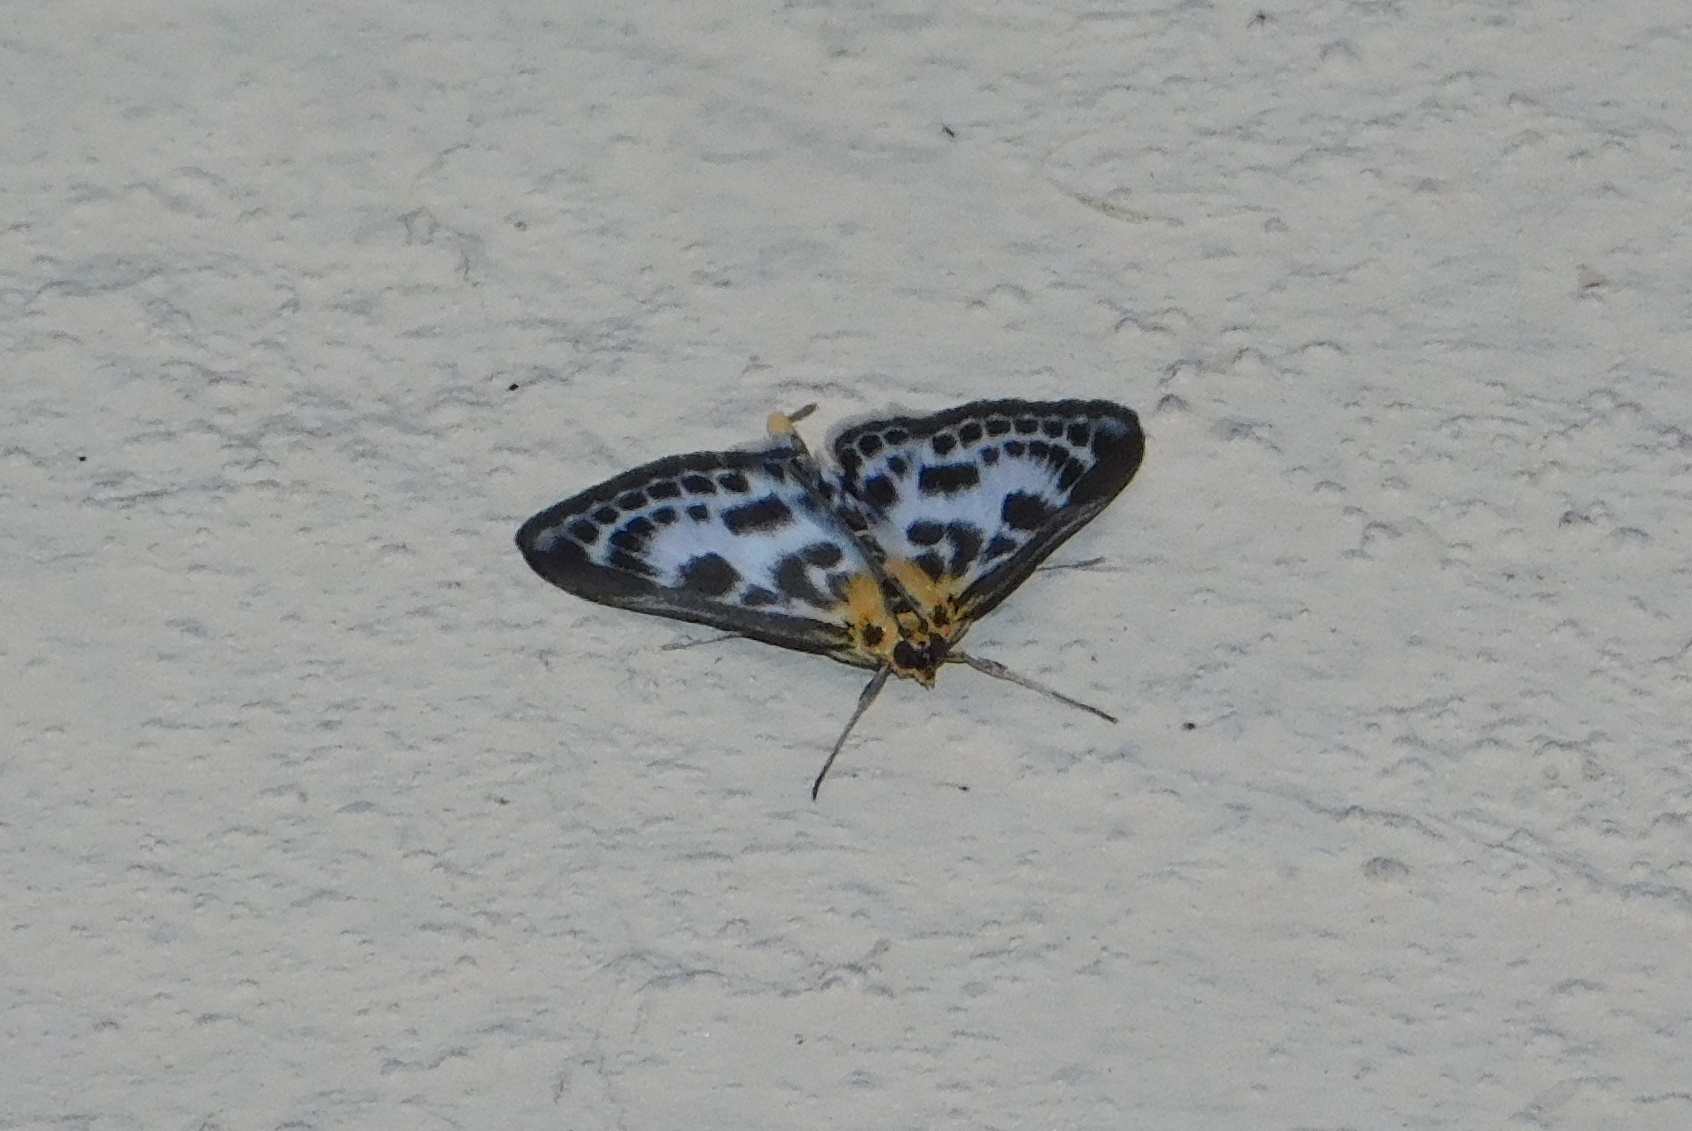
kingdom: Animalia
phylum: Arthropoda
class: Insecta
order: Lepidoptera
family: Crambidae
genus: Anania
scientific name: Anania hortulata
